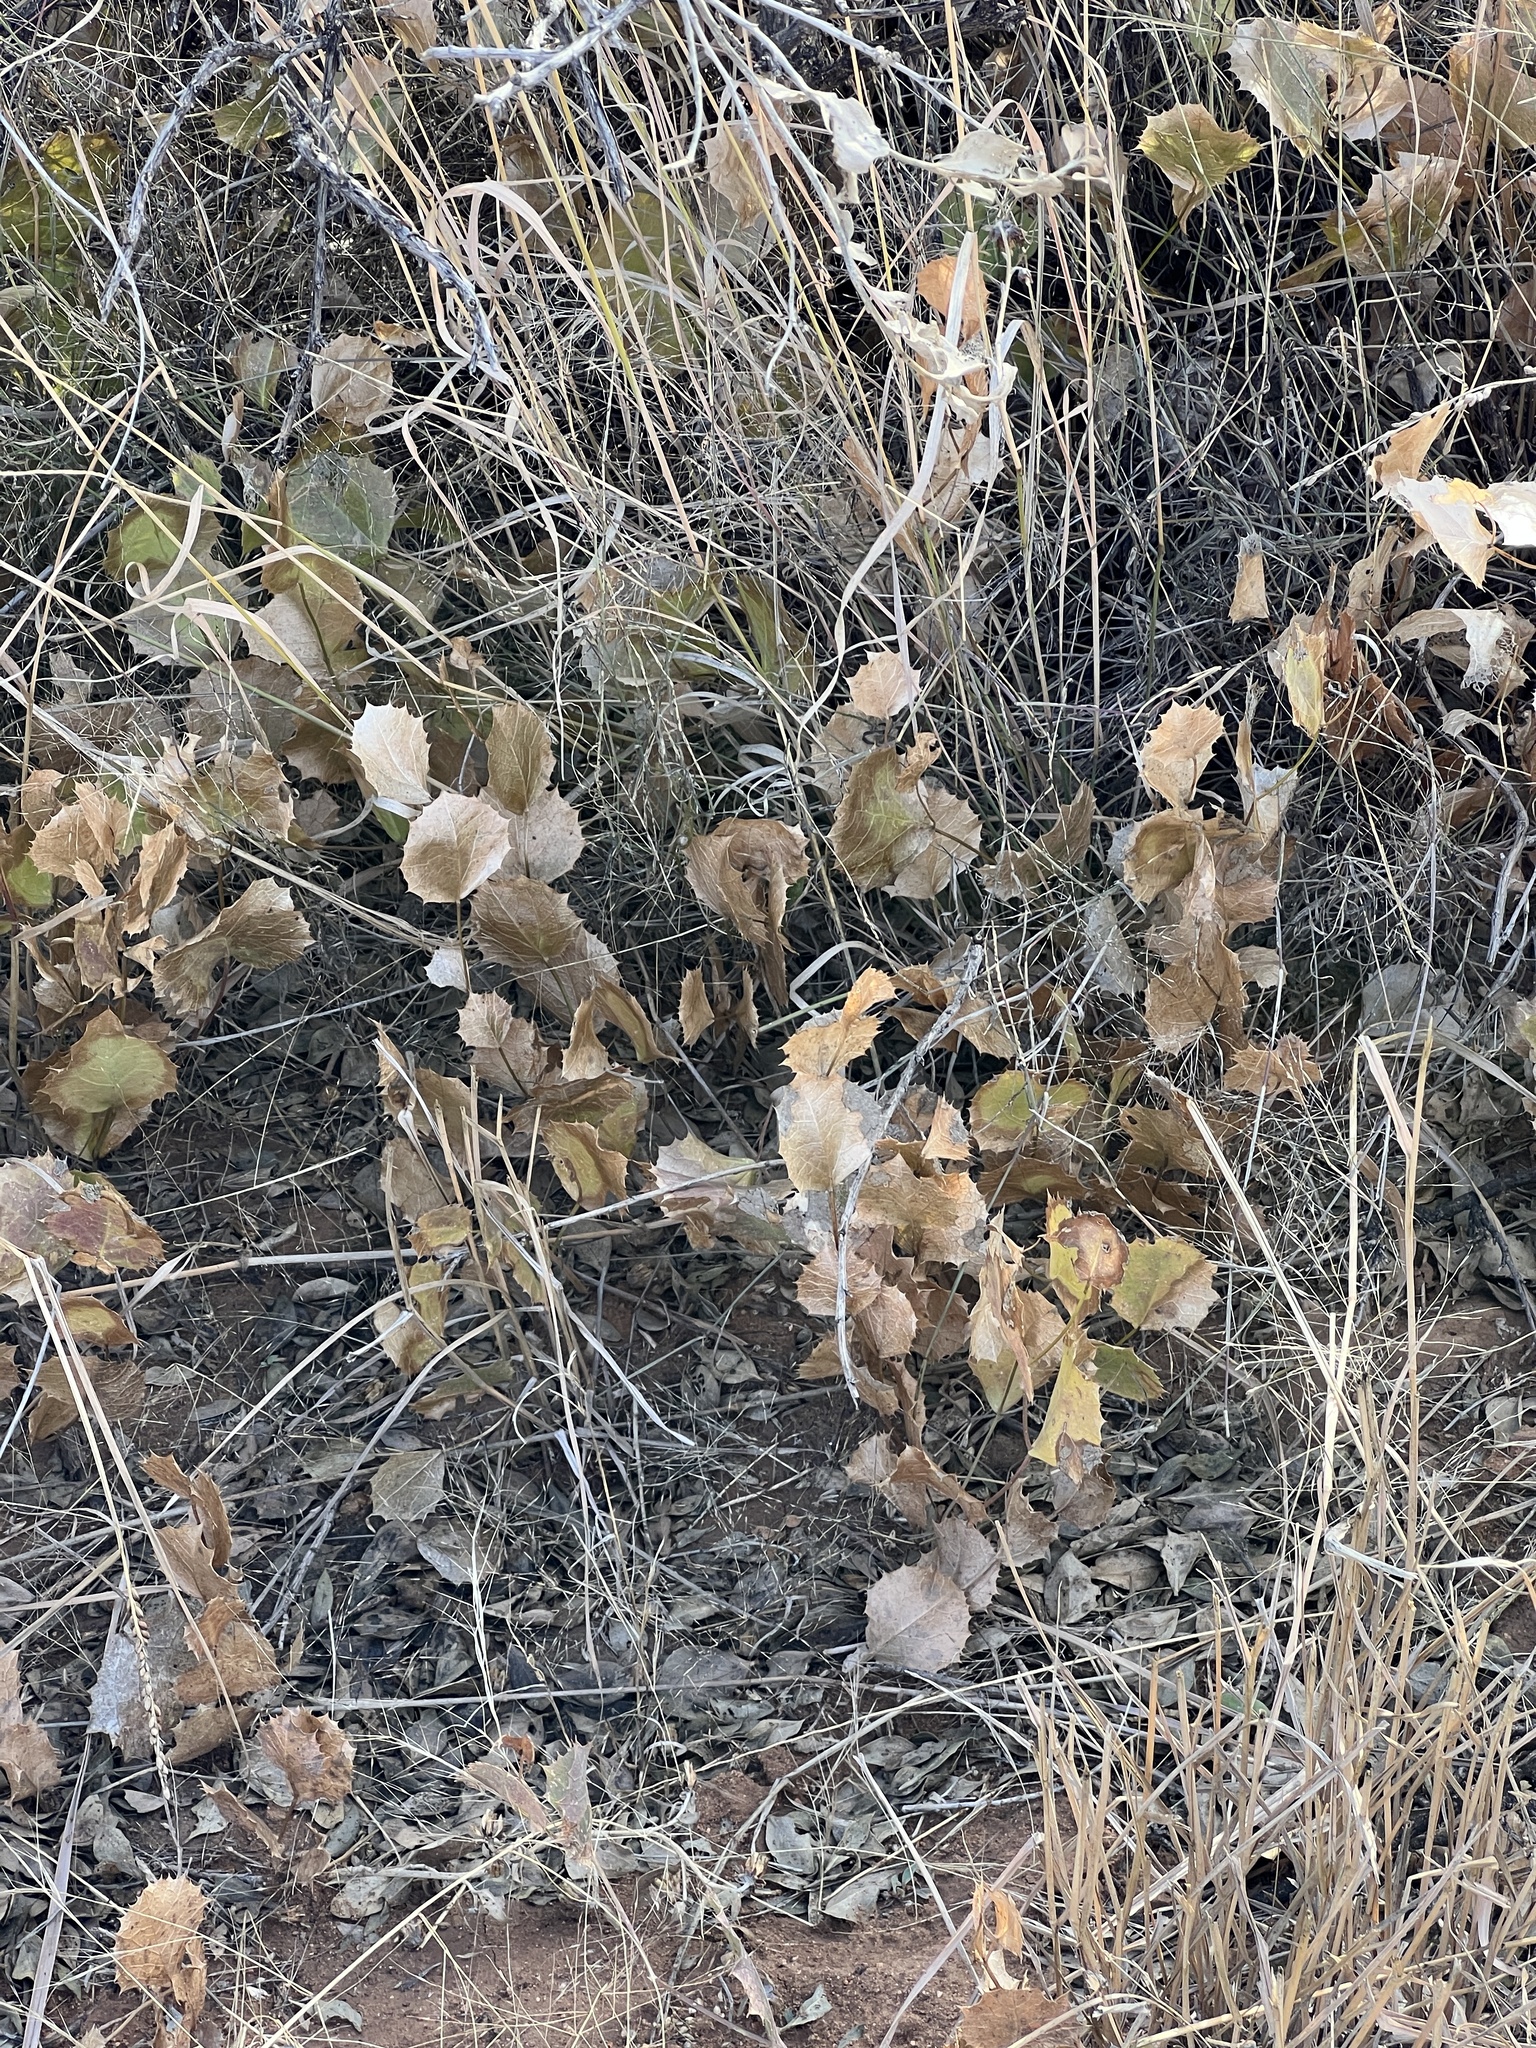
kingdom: Plantae
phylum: Tracheophyta
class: Magnoliopsida
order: Asterales
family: Asteraceae
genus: Acourtia
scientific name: Acourtia nana
